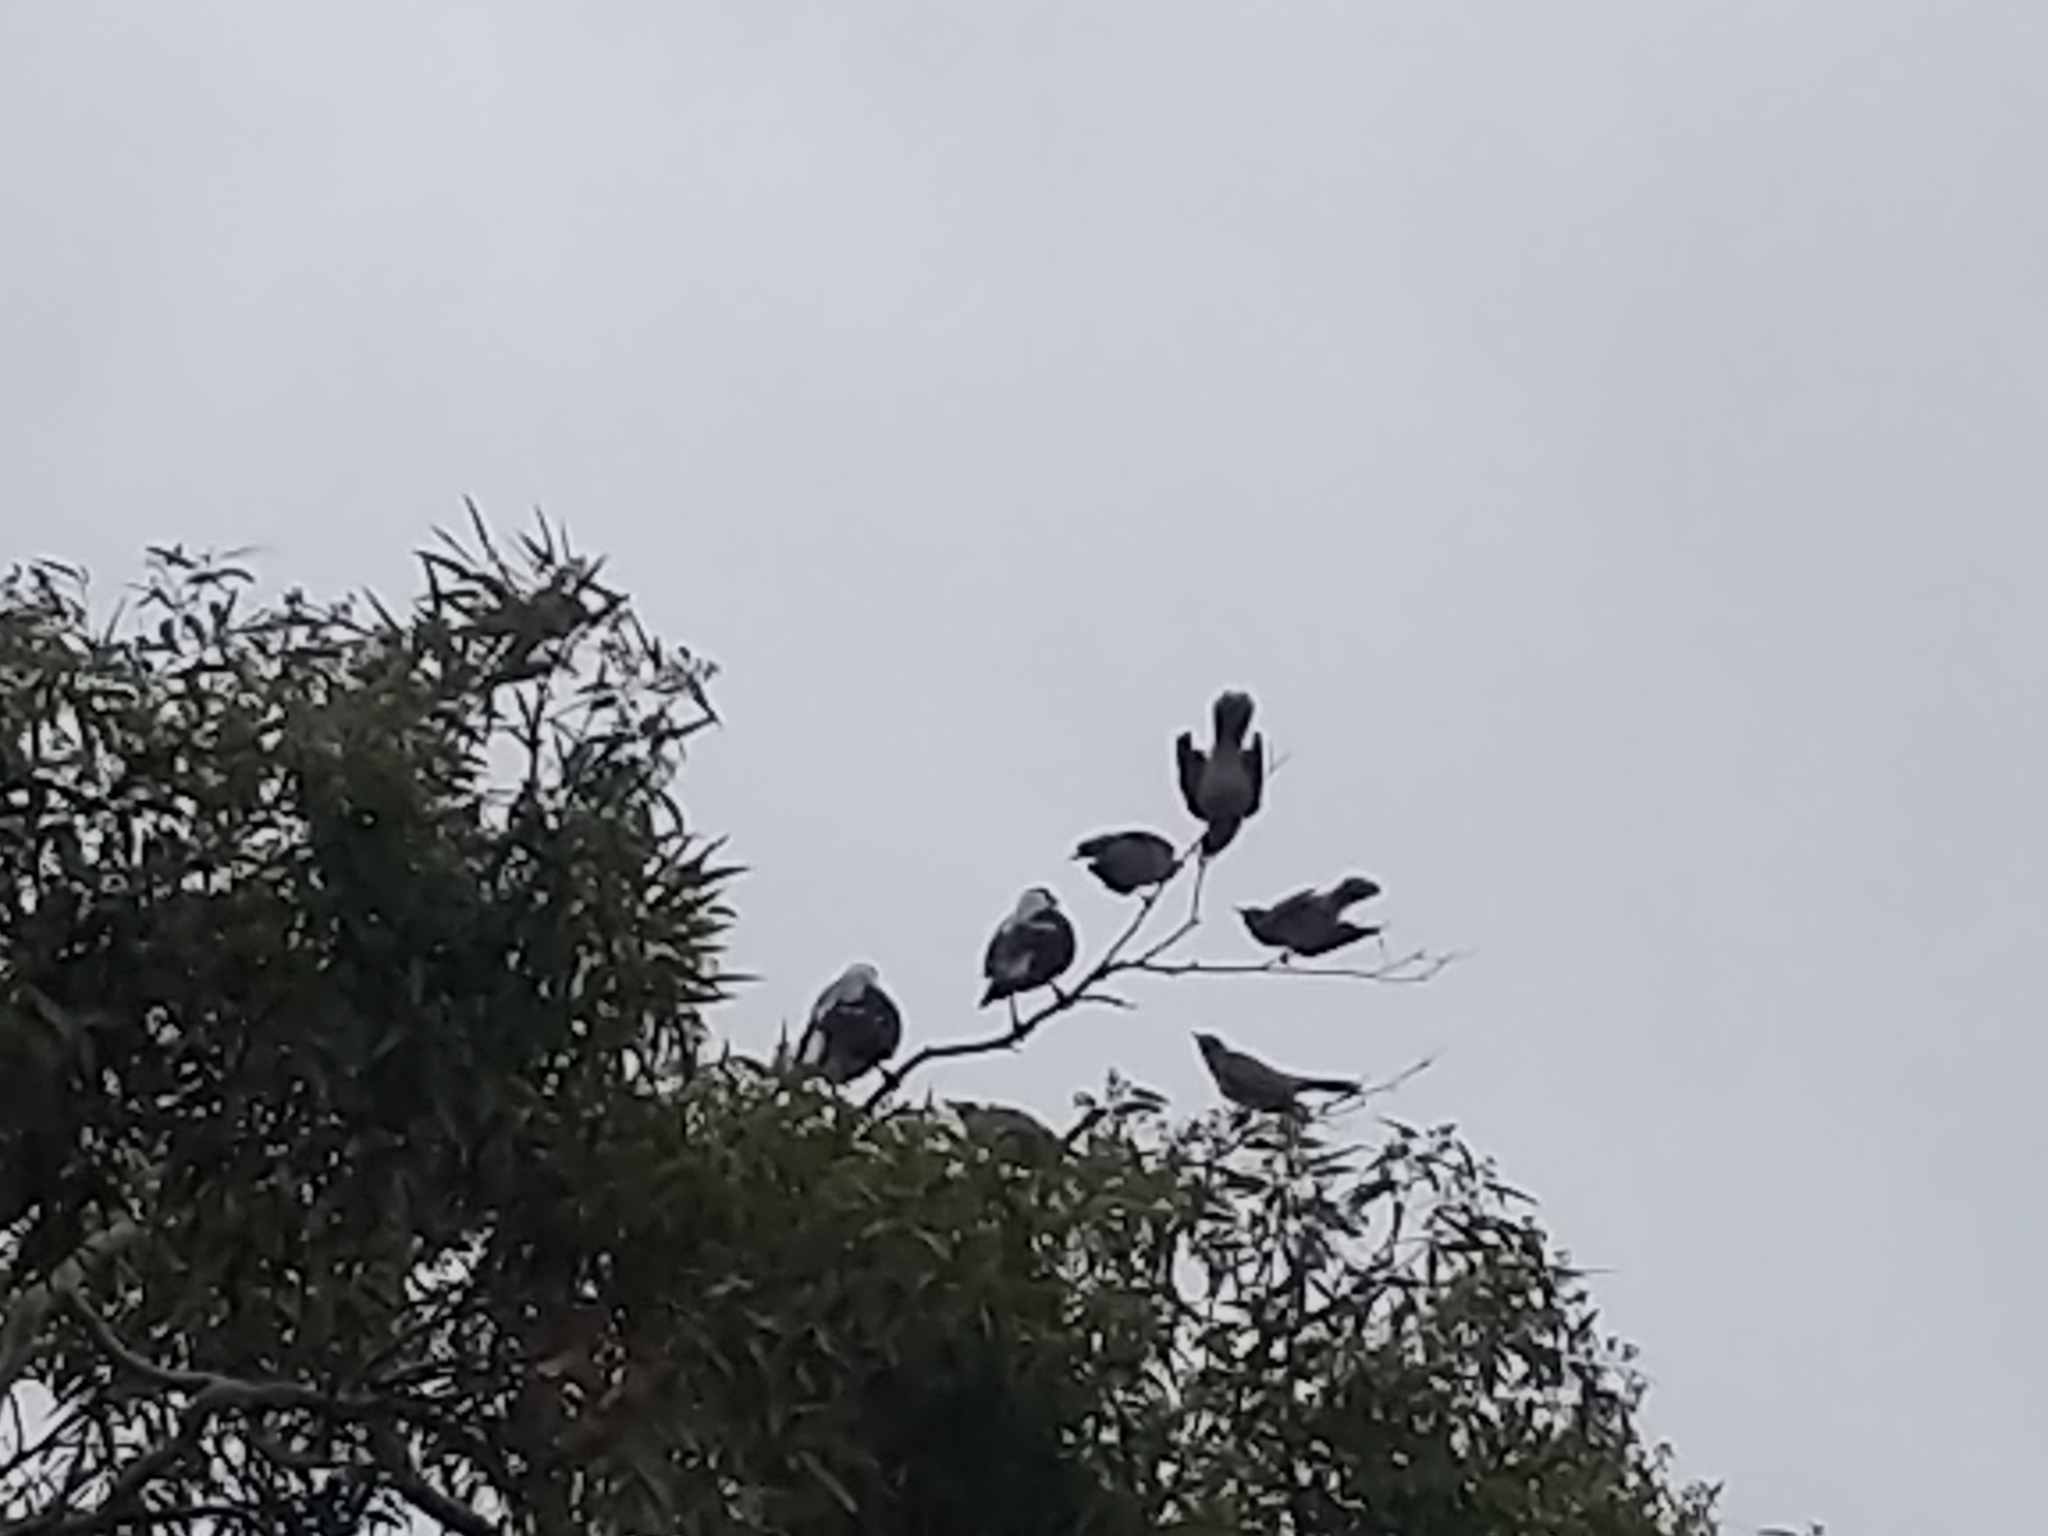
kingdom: Animalia
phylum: Chordata
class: Aves
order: Passeriformes
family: Cracticidae
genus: Gymnorhina
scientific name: Gymnorhina tibicen
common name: Australian magpie
